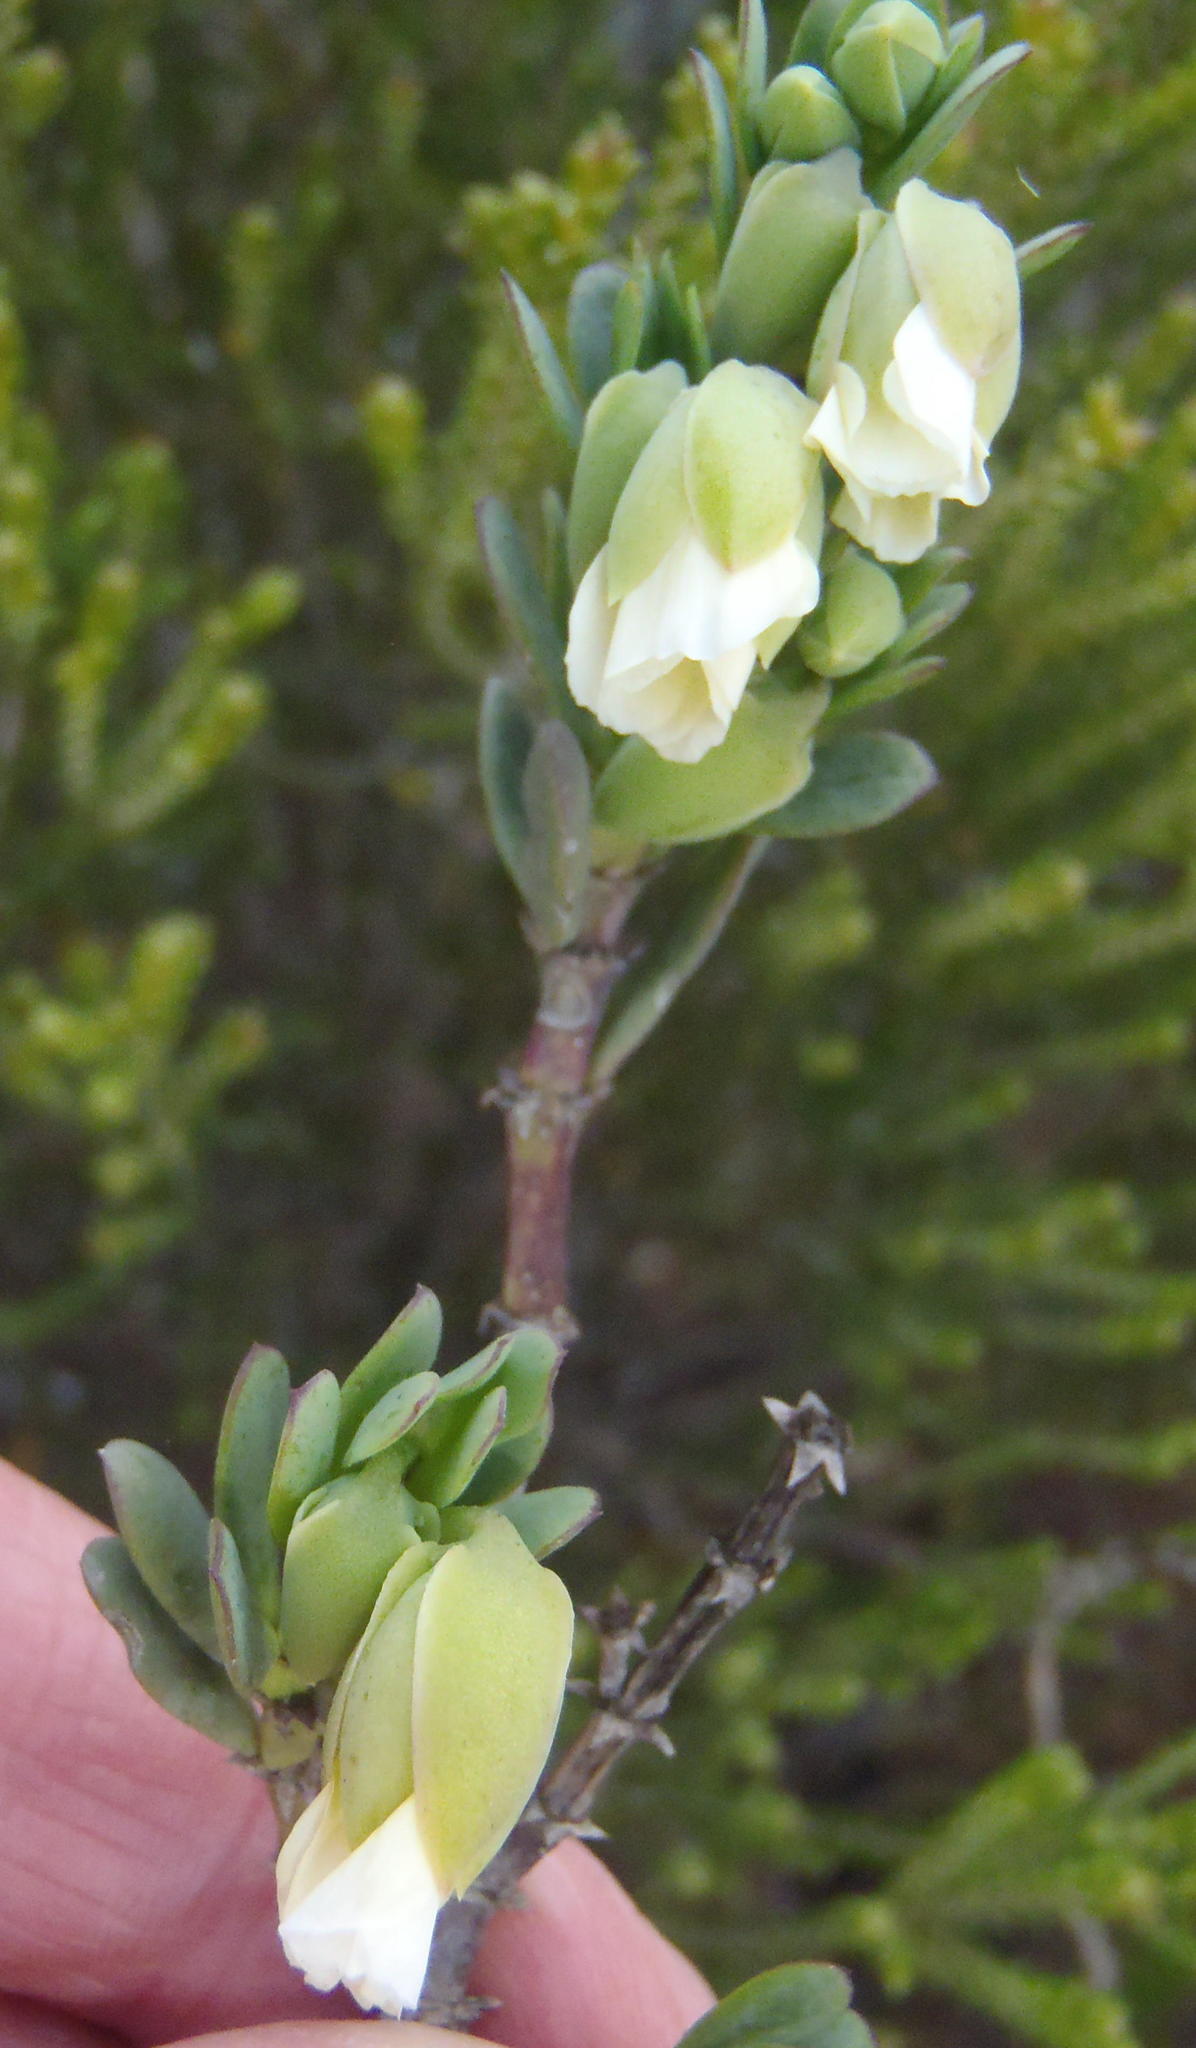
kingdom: Plantae
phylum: Tracheophyta
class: Magnoliopsida
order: Zygophyllales
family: Zygophyllaceae
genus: Roepera
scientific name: Roepera fulva
